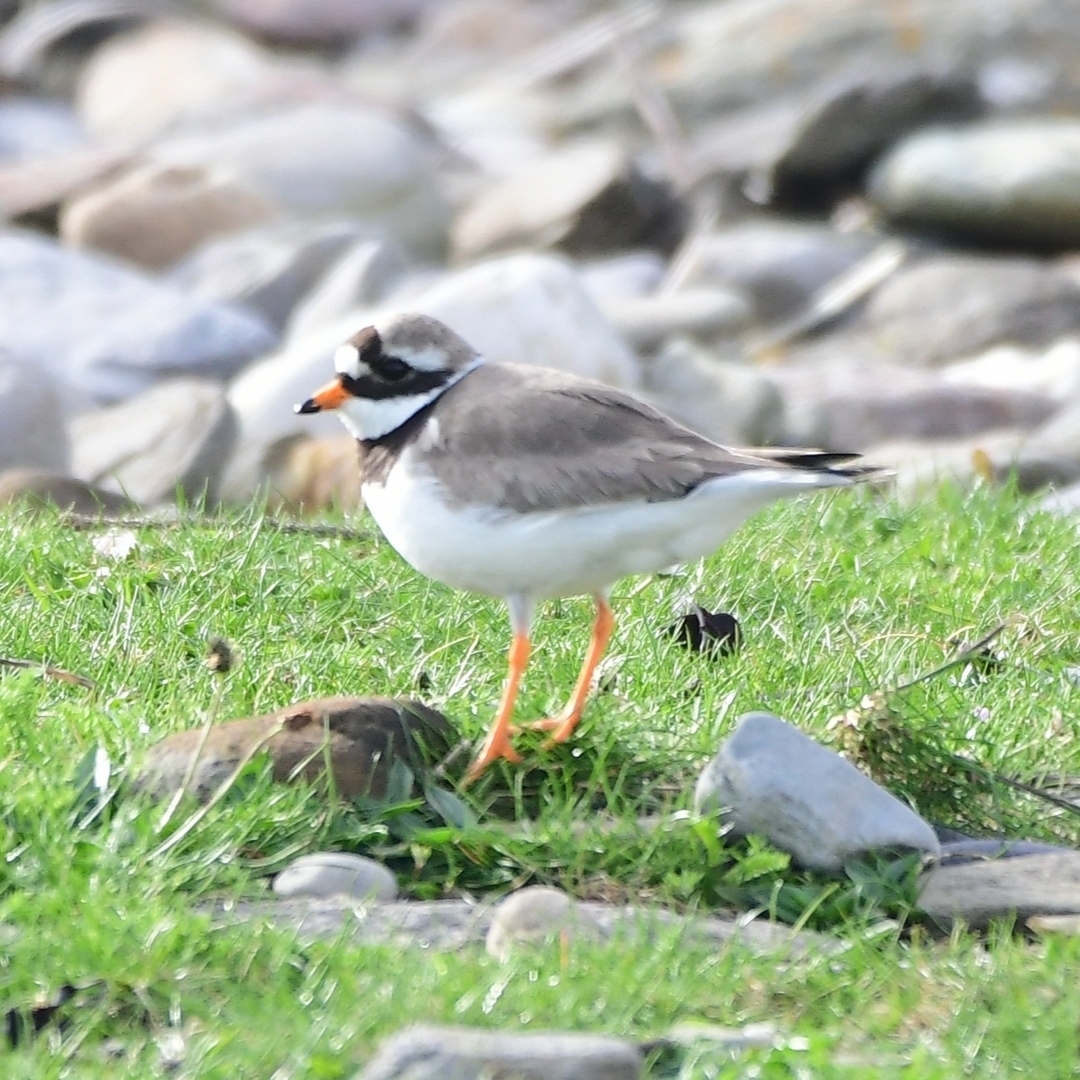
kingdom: Animalia
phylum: Chordata
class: Aves
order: Charadriiformes
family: Charadriidae
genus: Charadrius
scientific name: Charadrius hiaticula
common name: Common ringed plover
